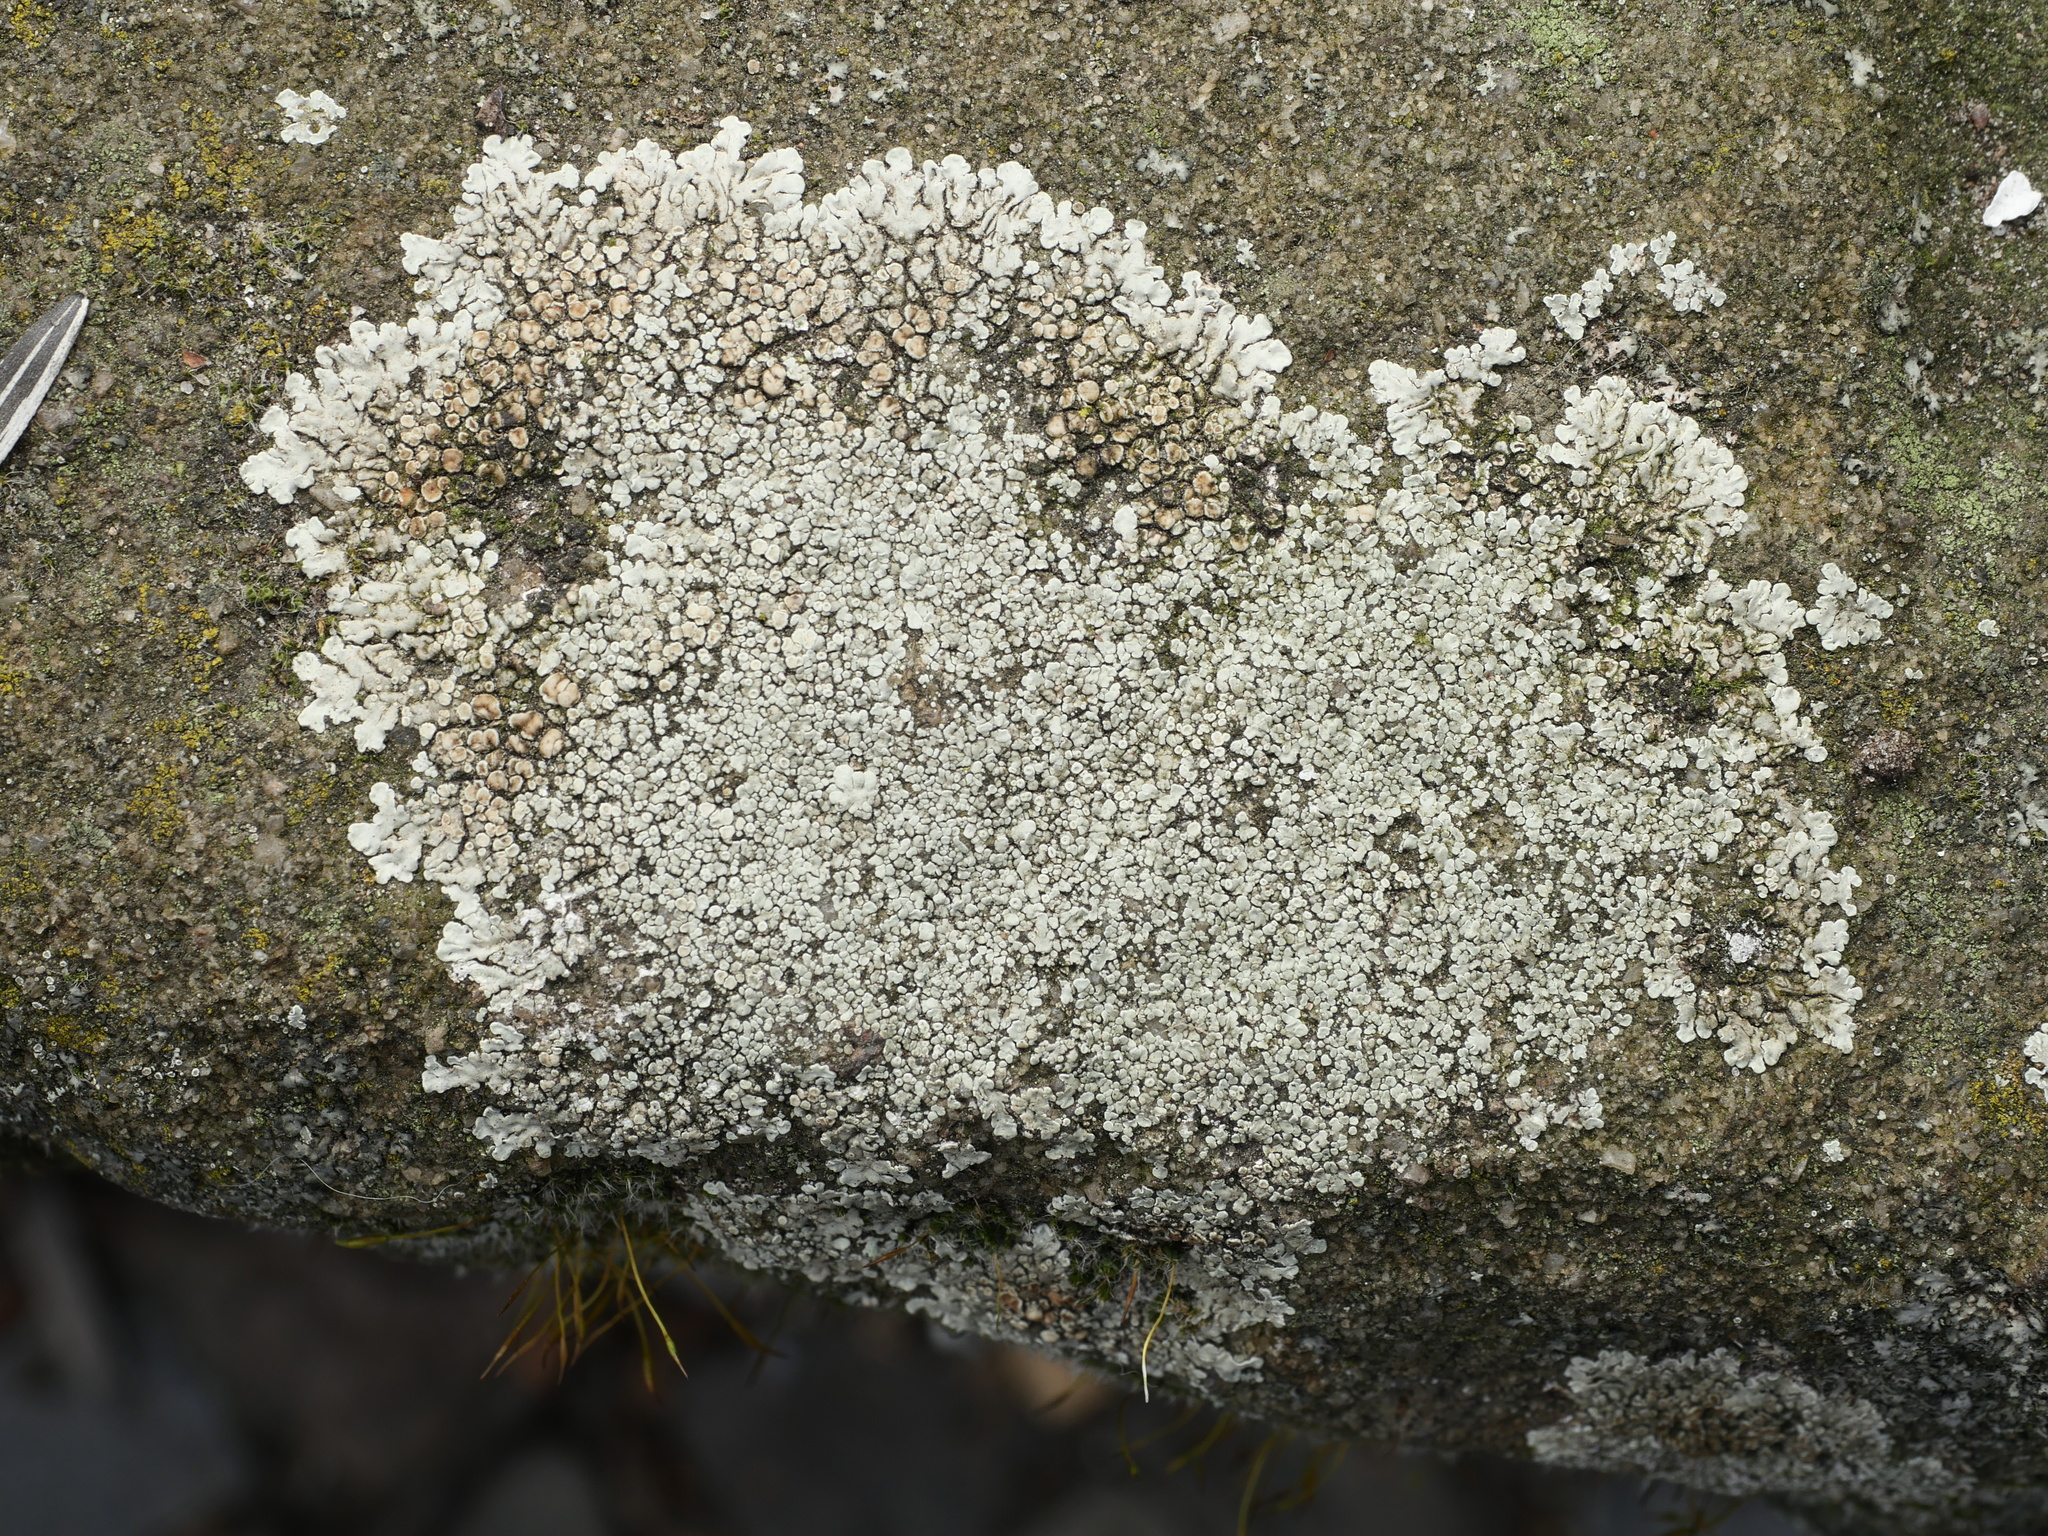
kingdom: Fungi
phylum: Ascomycota
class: Lecanoromycetes
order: Lecanorales
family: Lecanoraceae
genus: Protoparmeliopsis
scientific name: Protoparmeliopsis muralis
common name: Stonewall rim lichen
